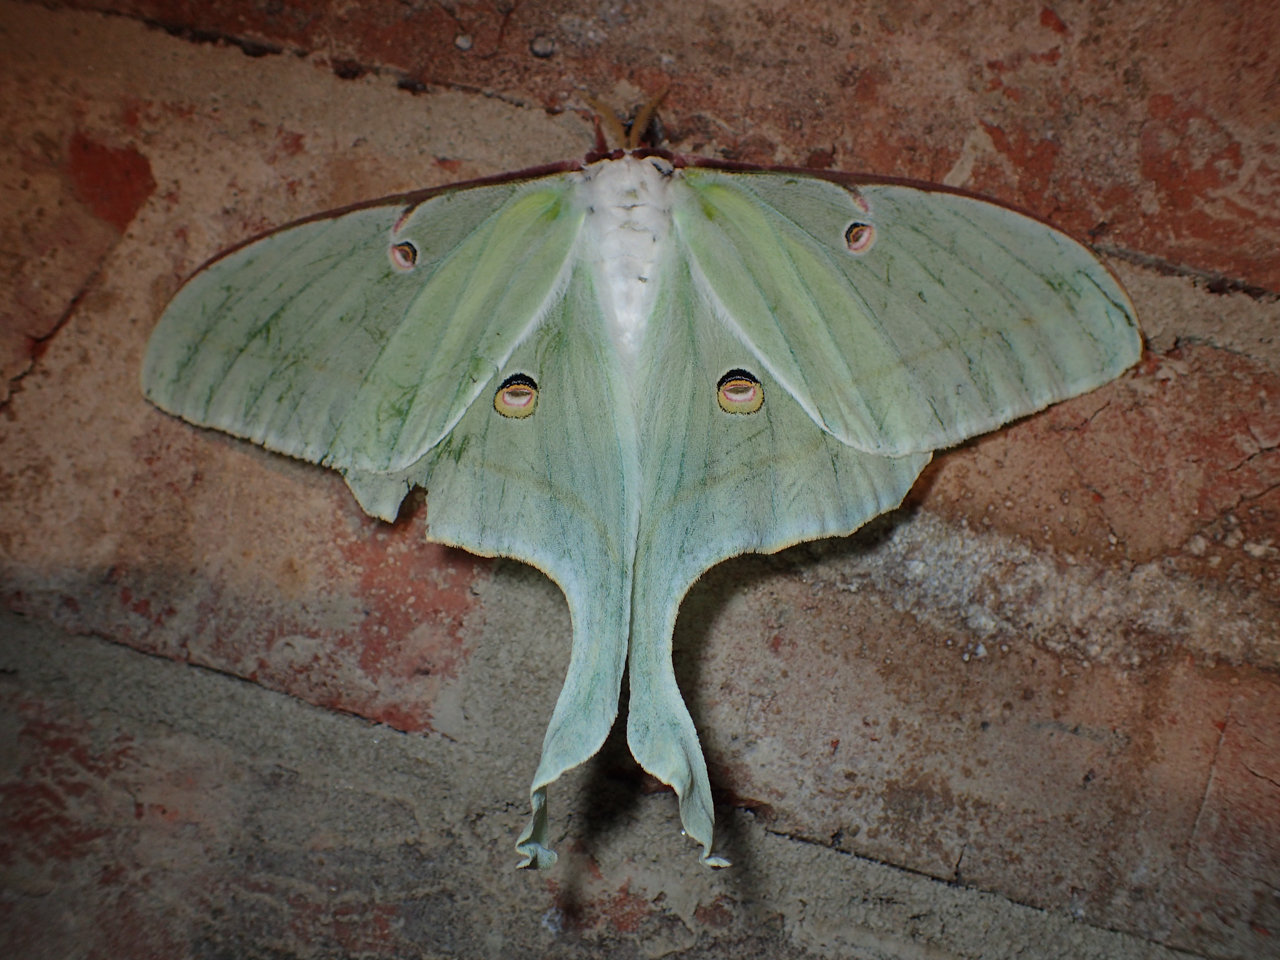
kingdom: Animalia
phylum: Arthropoda
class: Insecta
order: Lepidoptera
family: Saturniidae
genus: Actias
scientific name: Actias luna
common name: Luna moth
